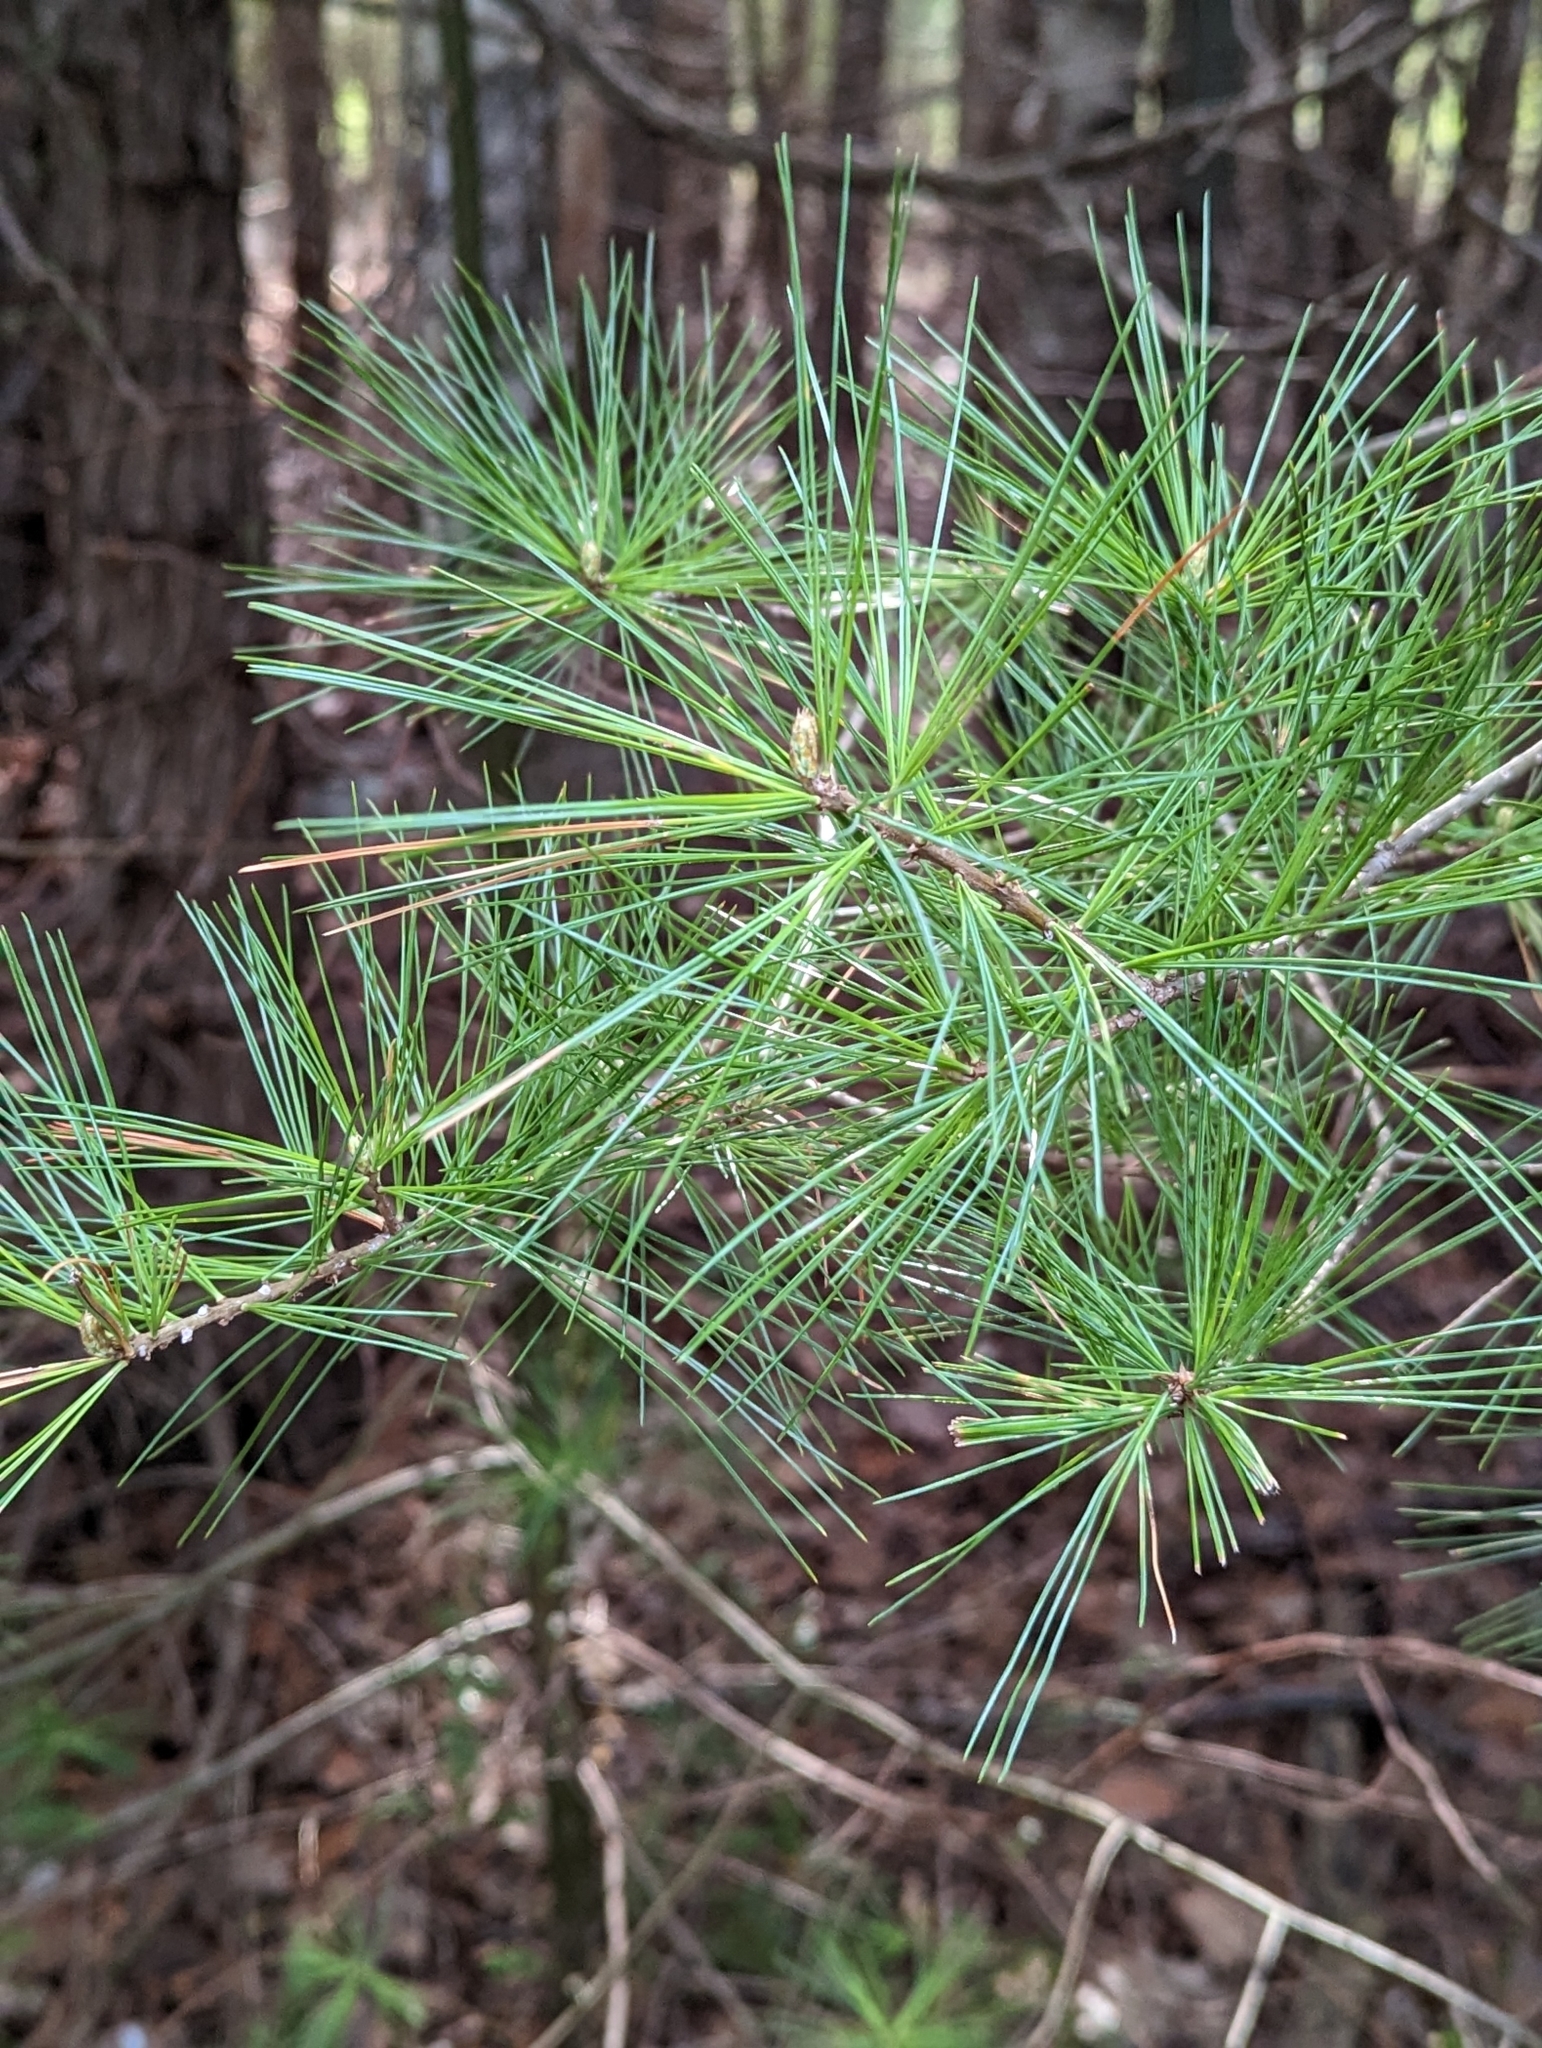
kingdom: Plantae
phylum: Tracheophyta
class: Pinopsida
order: Pinales
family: Pinaceae
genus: Pinus
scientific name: Pinus strobus
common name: Weymouth pine
